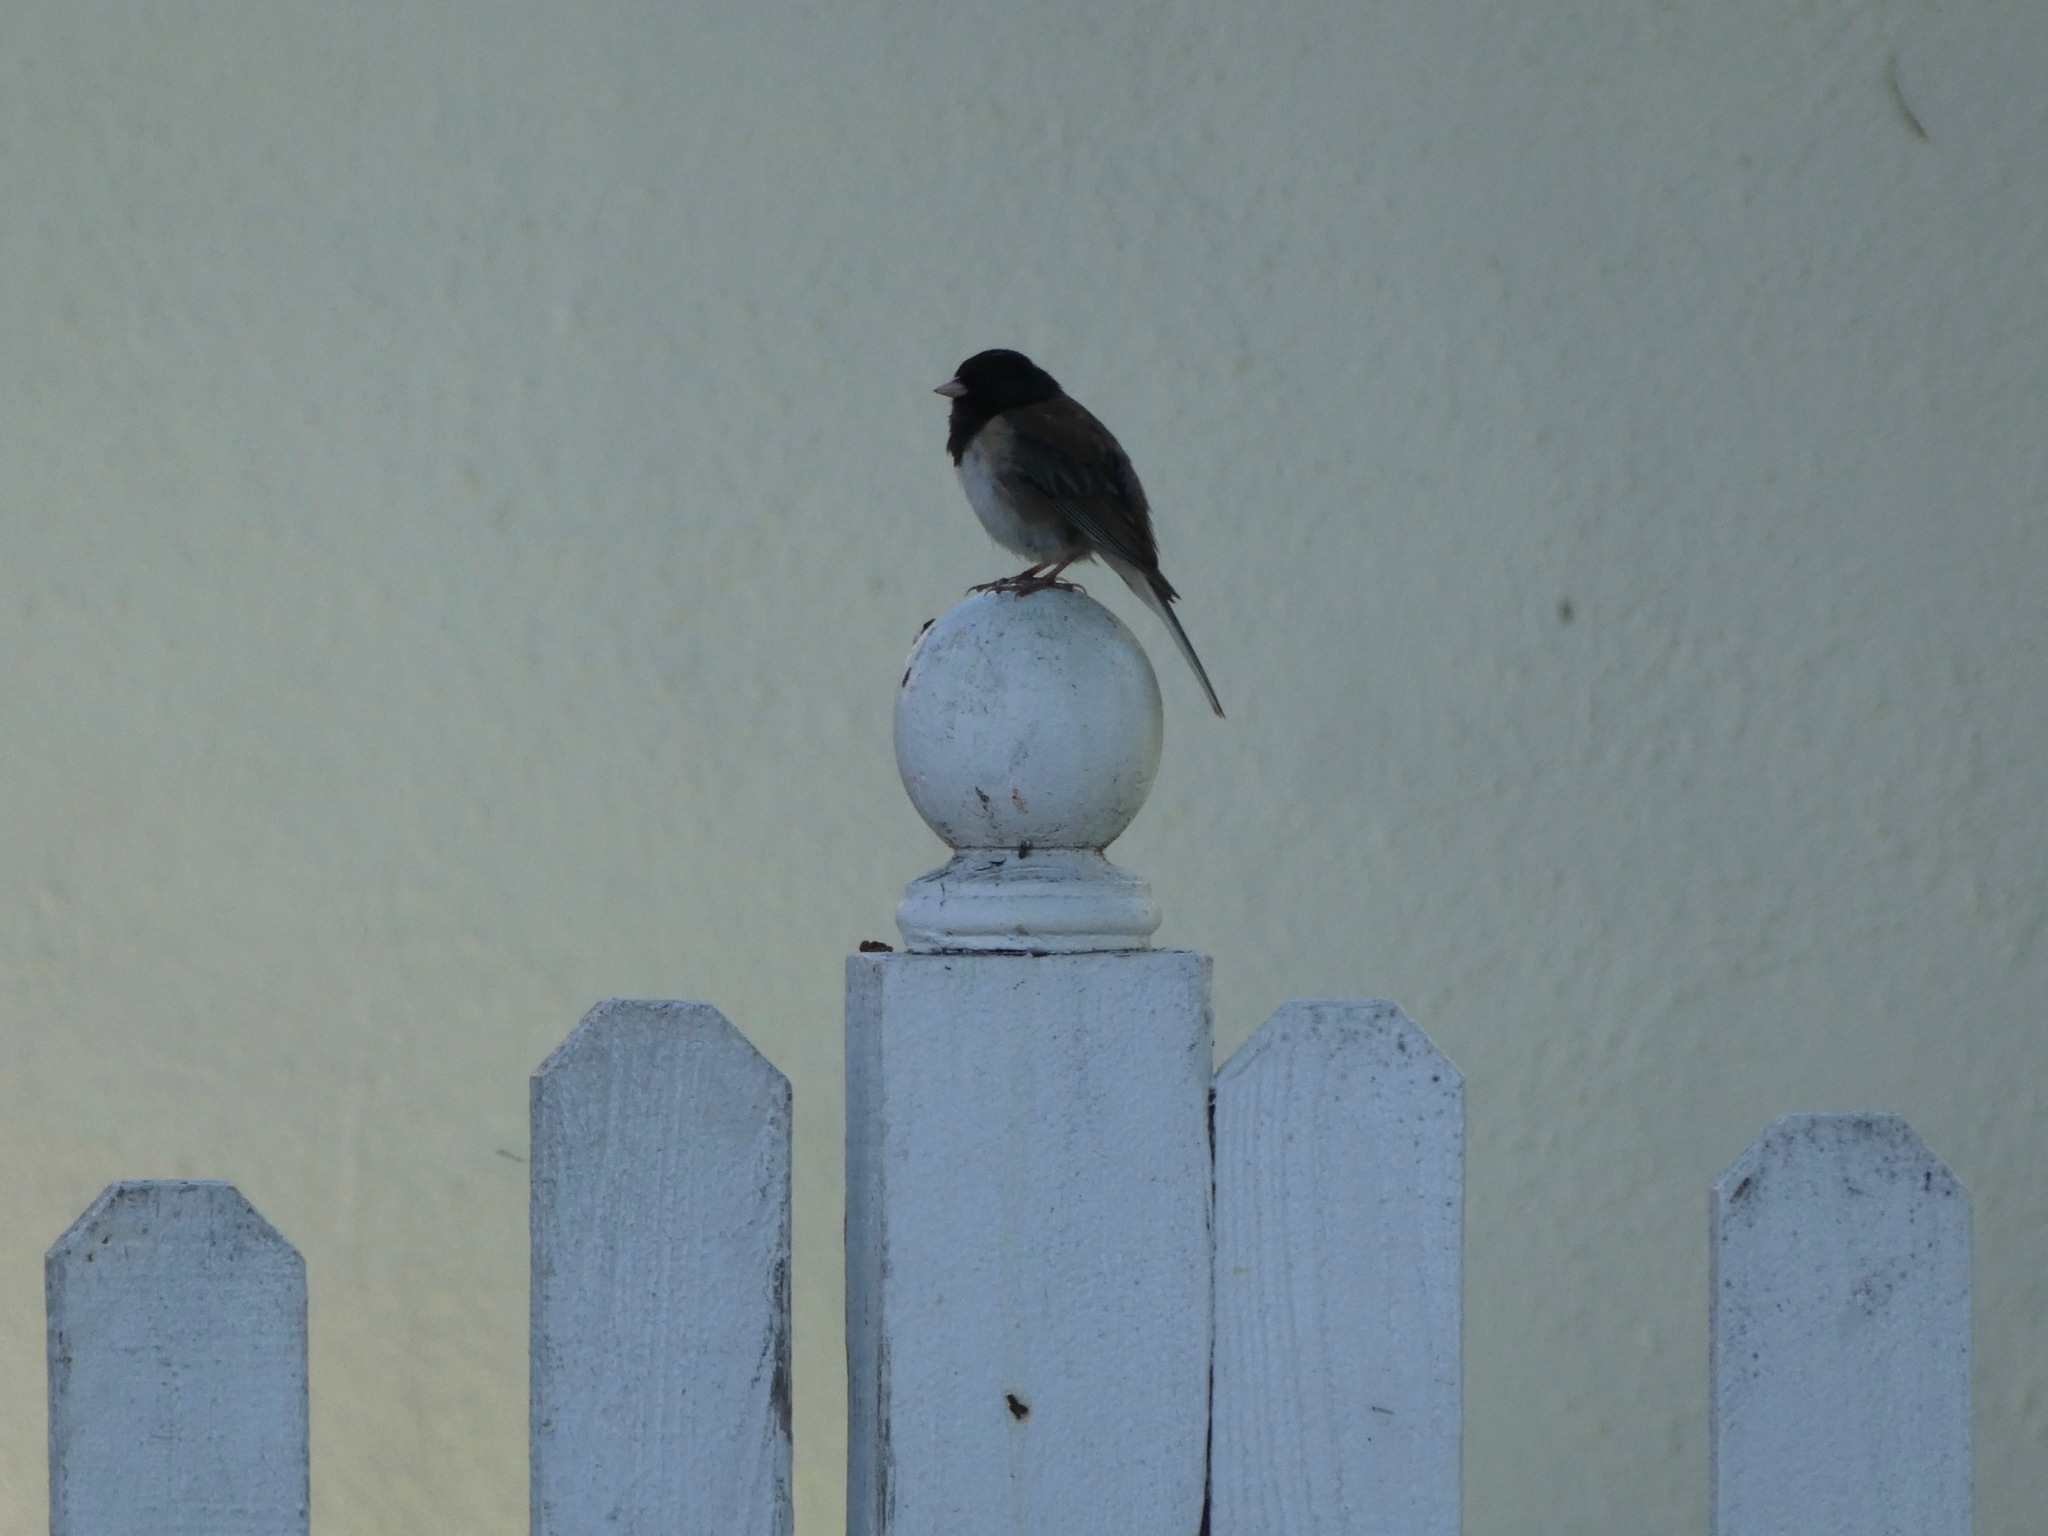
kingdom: Animalia
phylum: Chordata
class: Aves
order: Passeriformes
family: Passerellidae
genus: Junco
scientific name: Junco hyemalis
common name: Dark-eyed junco
